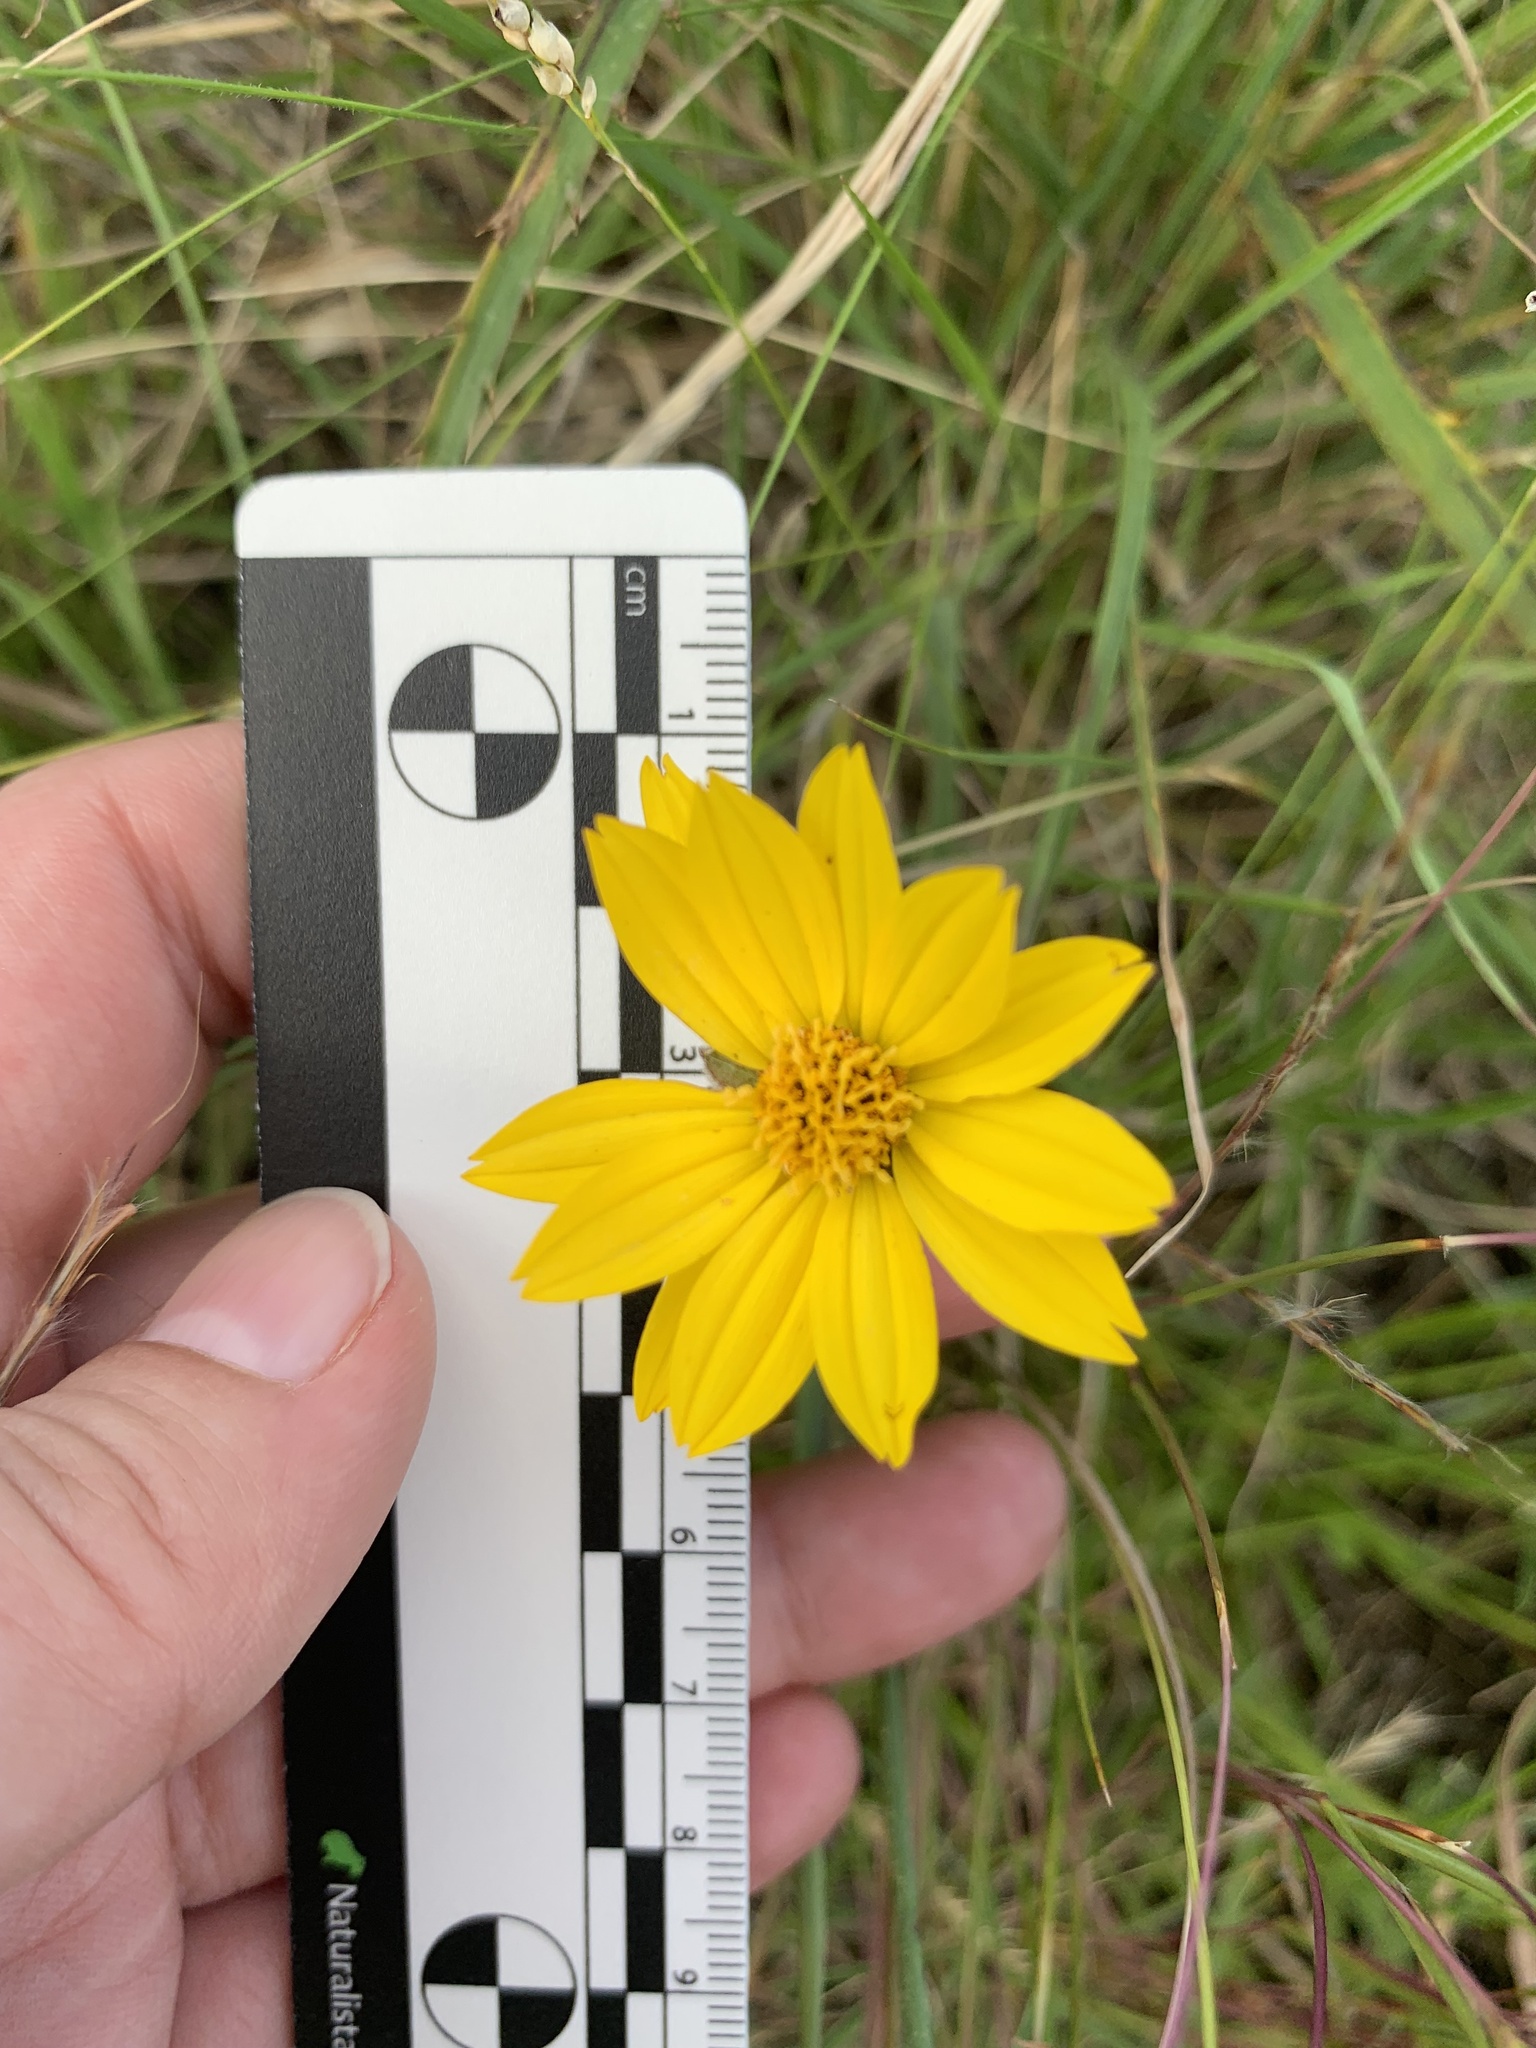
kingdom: Plantae
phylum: Tracheophyta
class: Magnoliopsida
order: Asterales
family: Asteraceae
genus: Wedelia
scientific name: Wedelia montevidensis
